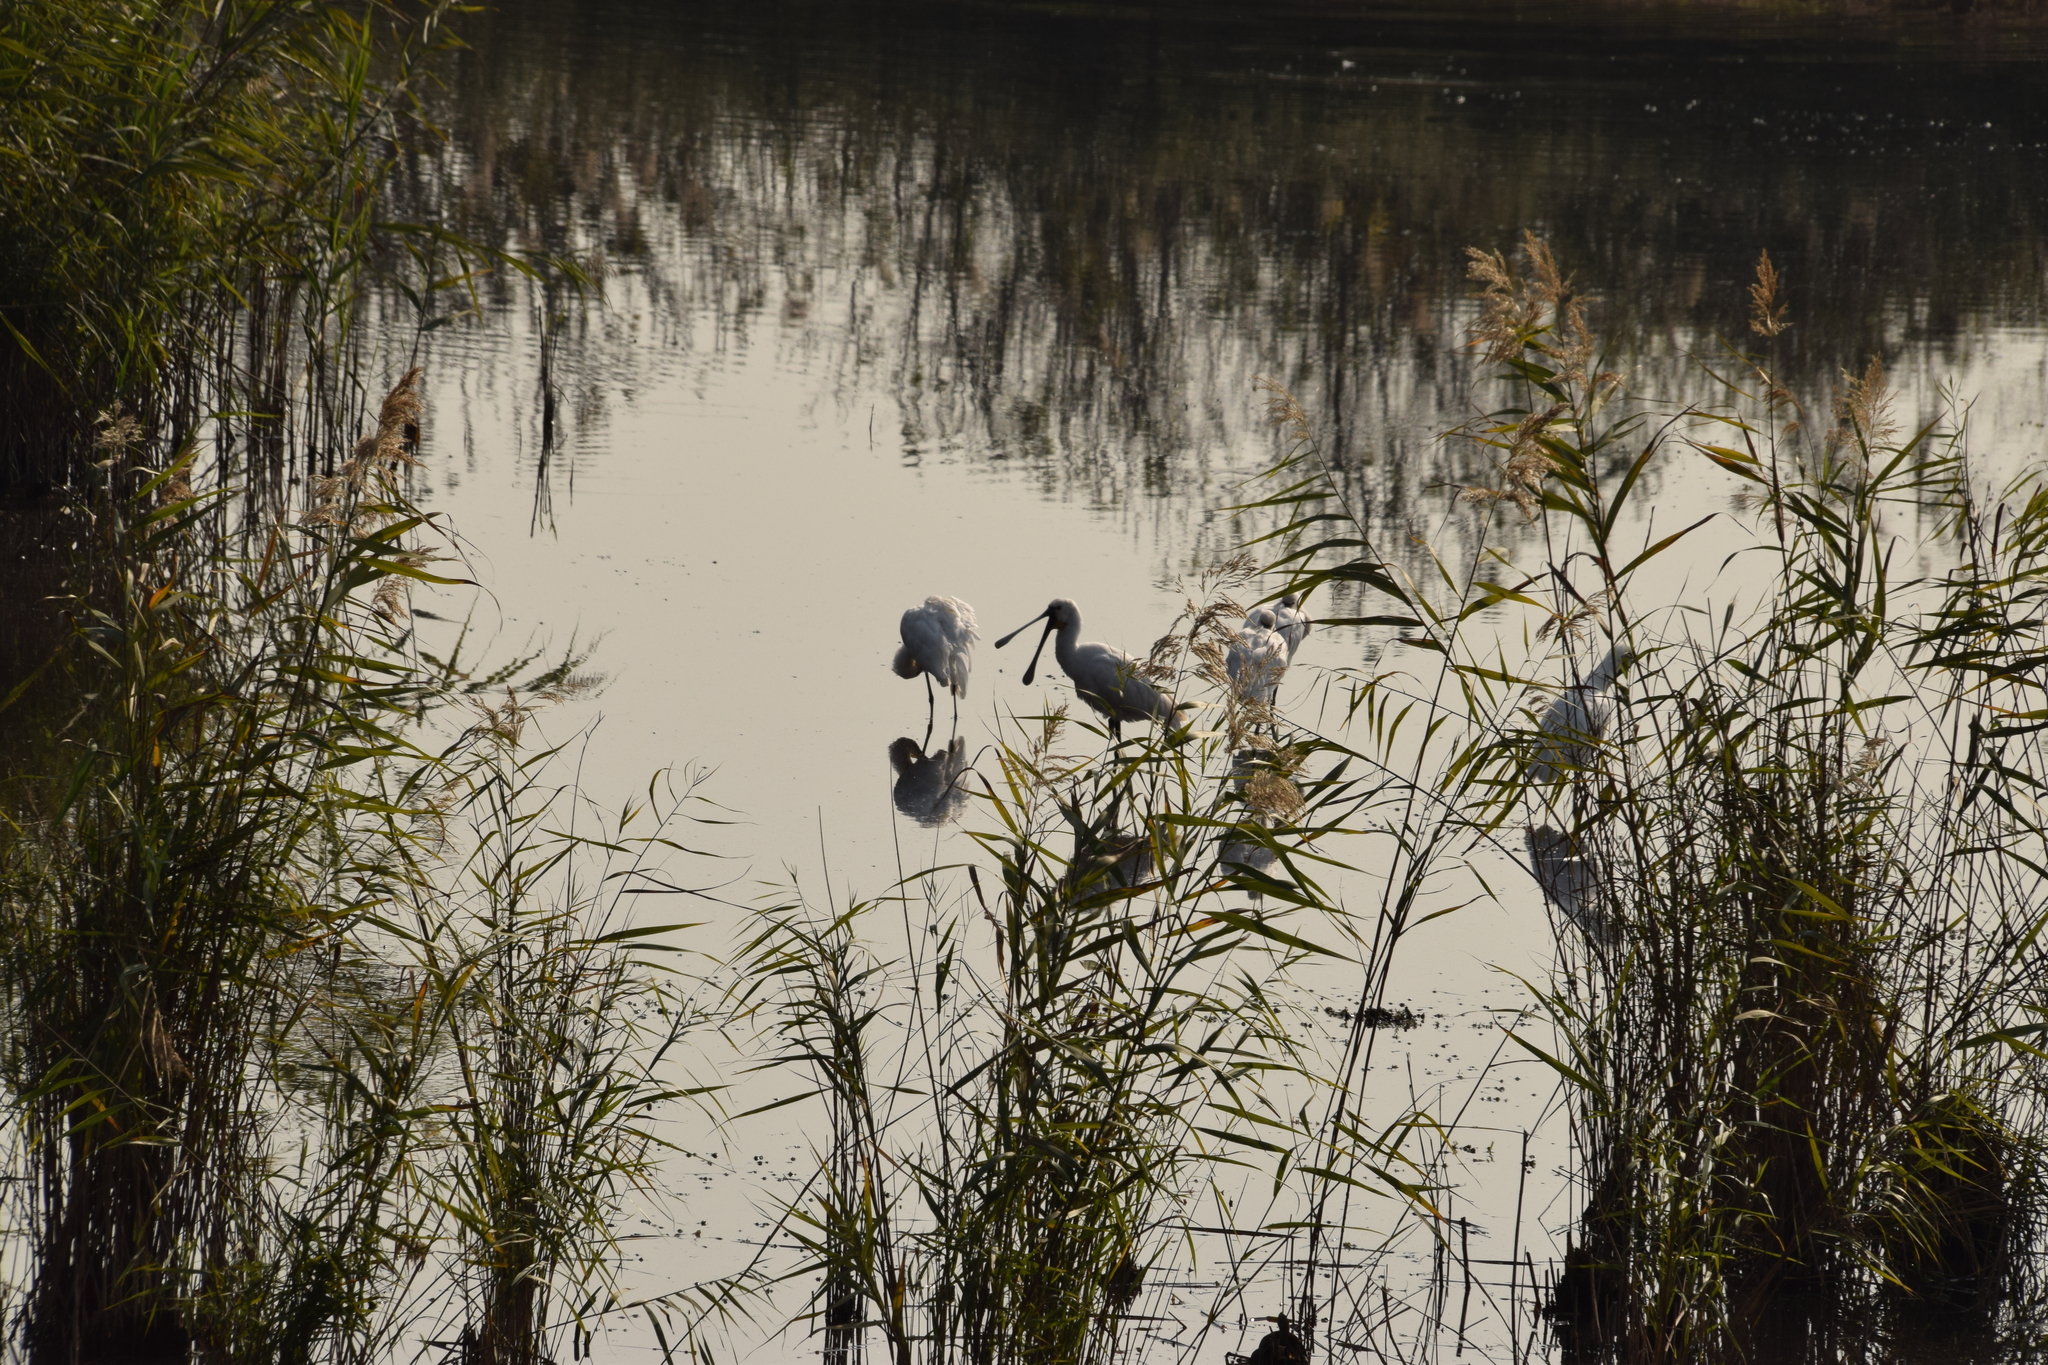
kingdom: Animalia
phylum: Chordata
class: Aves
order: Pelecaniformes
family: Threskiornithidae
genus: Platalea
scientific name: Platalea leucorodia
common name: Eurasian spoonbill
